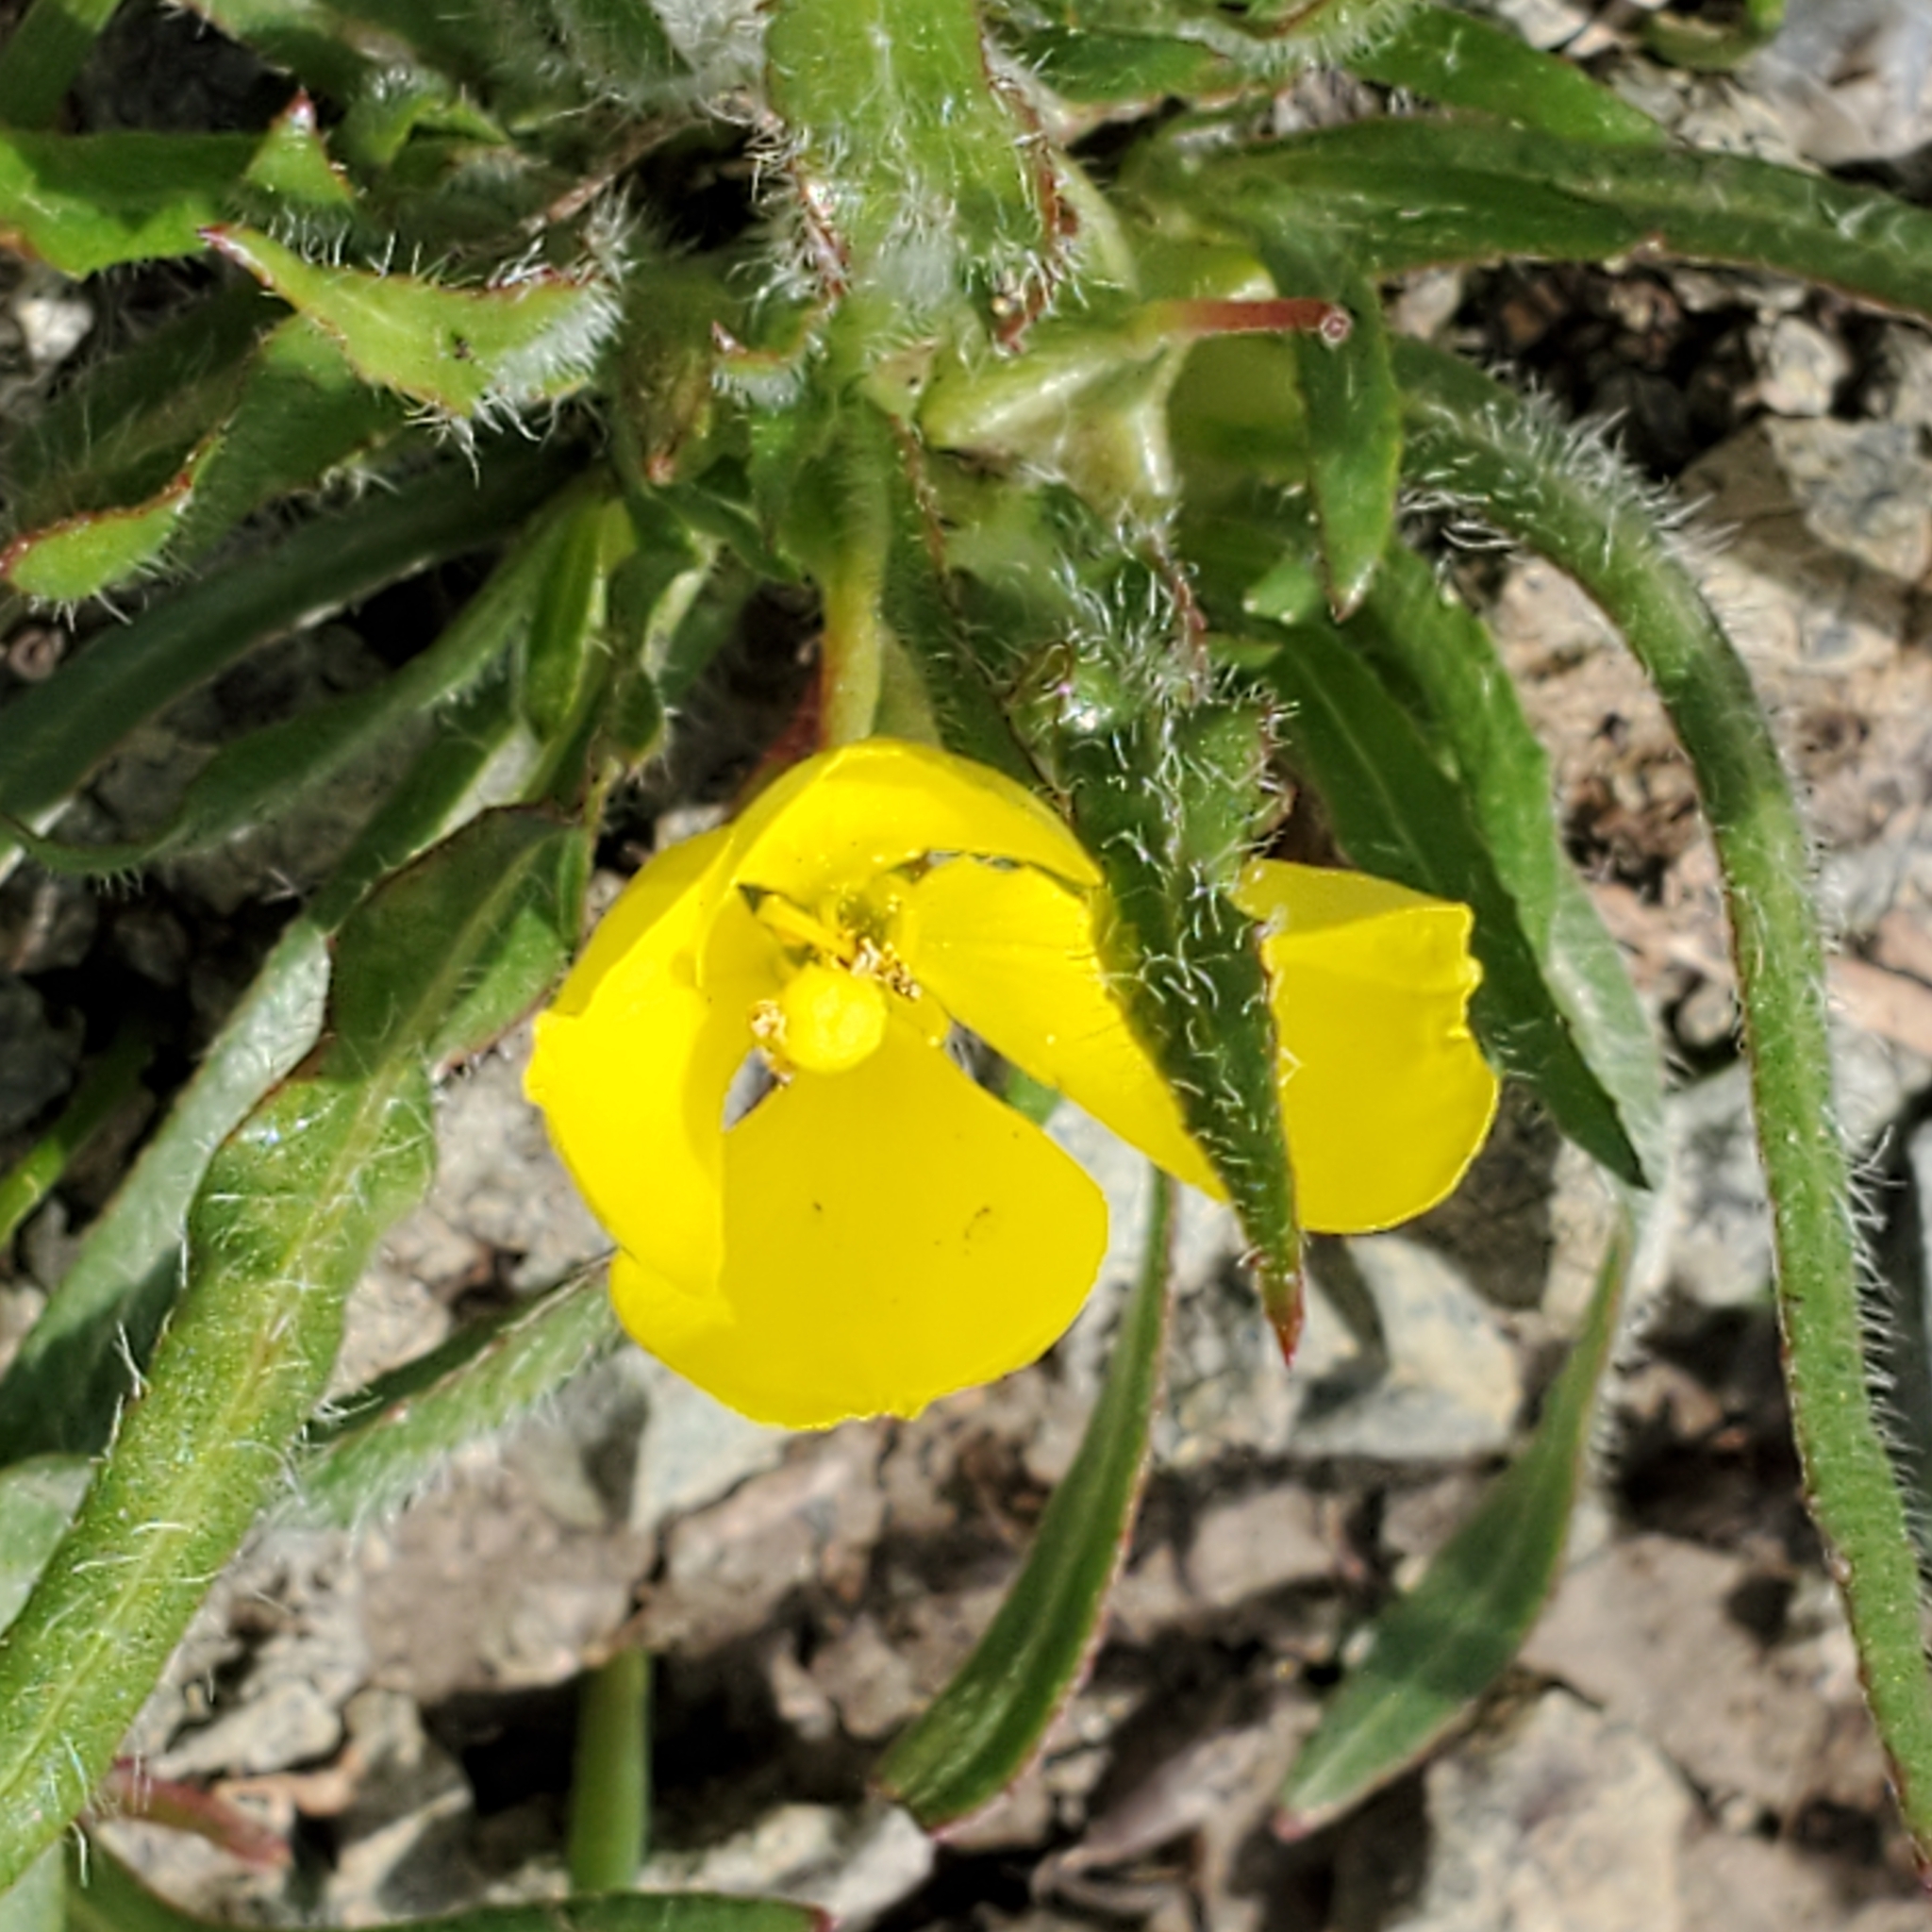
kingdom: Plantae
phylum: Tracheophyta
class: Magnoliopsida
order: Myrtales
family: Onagraceae
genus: Tetrapteron
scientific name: Tetrapteron graciliflorum
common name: Hill suncup
